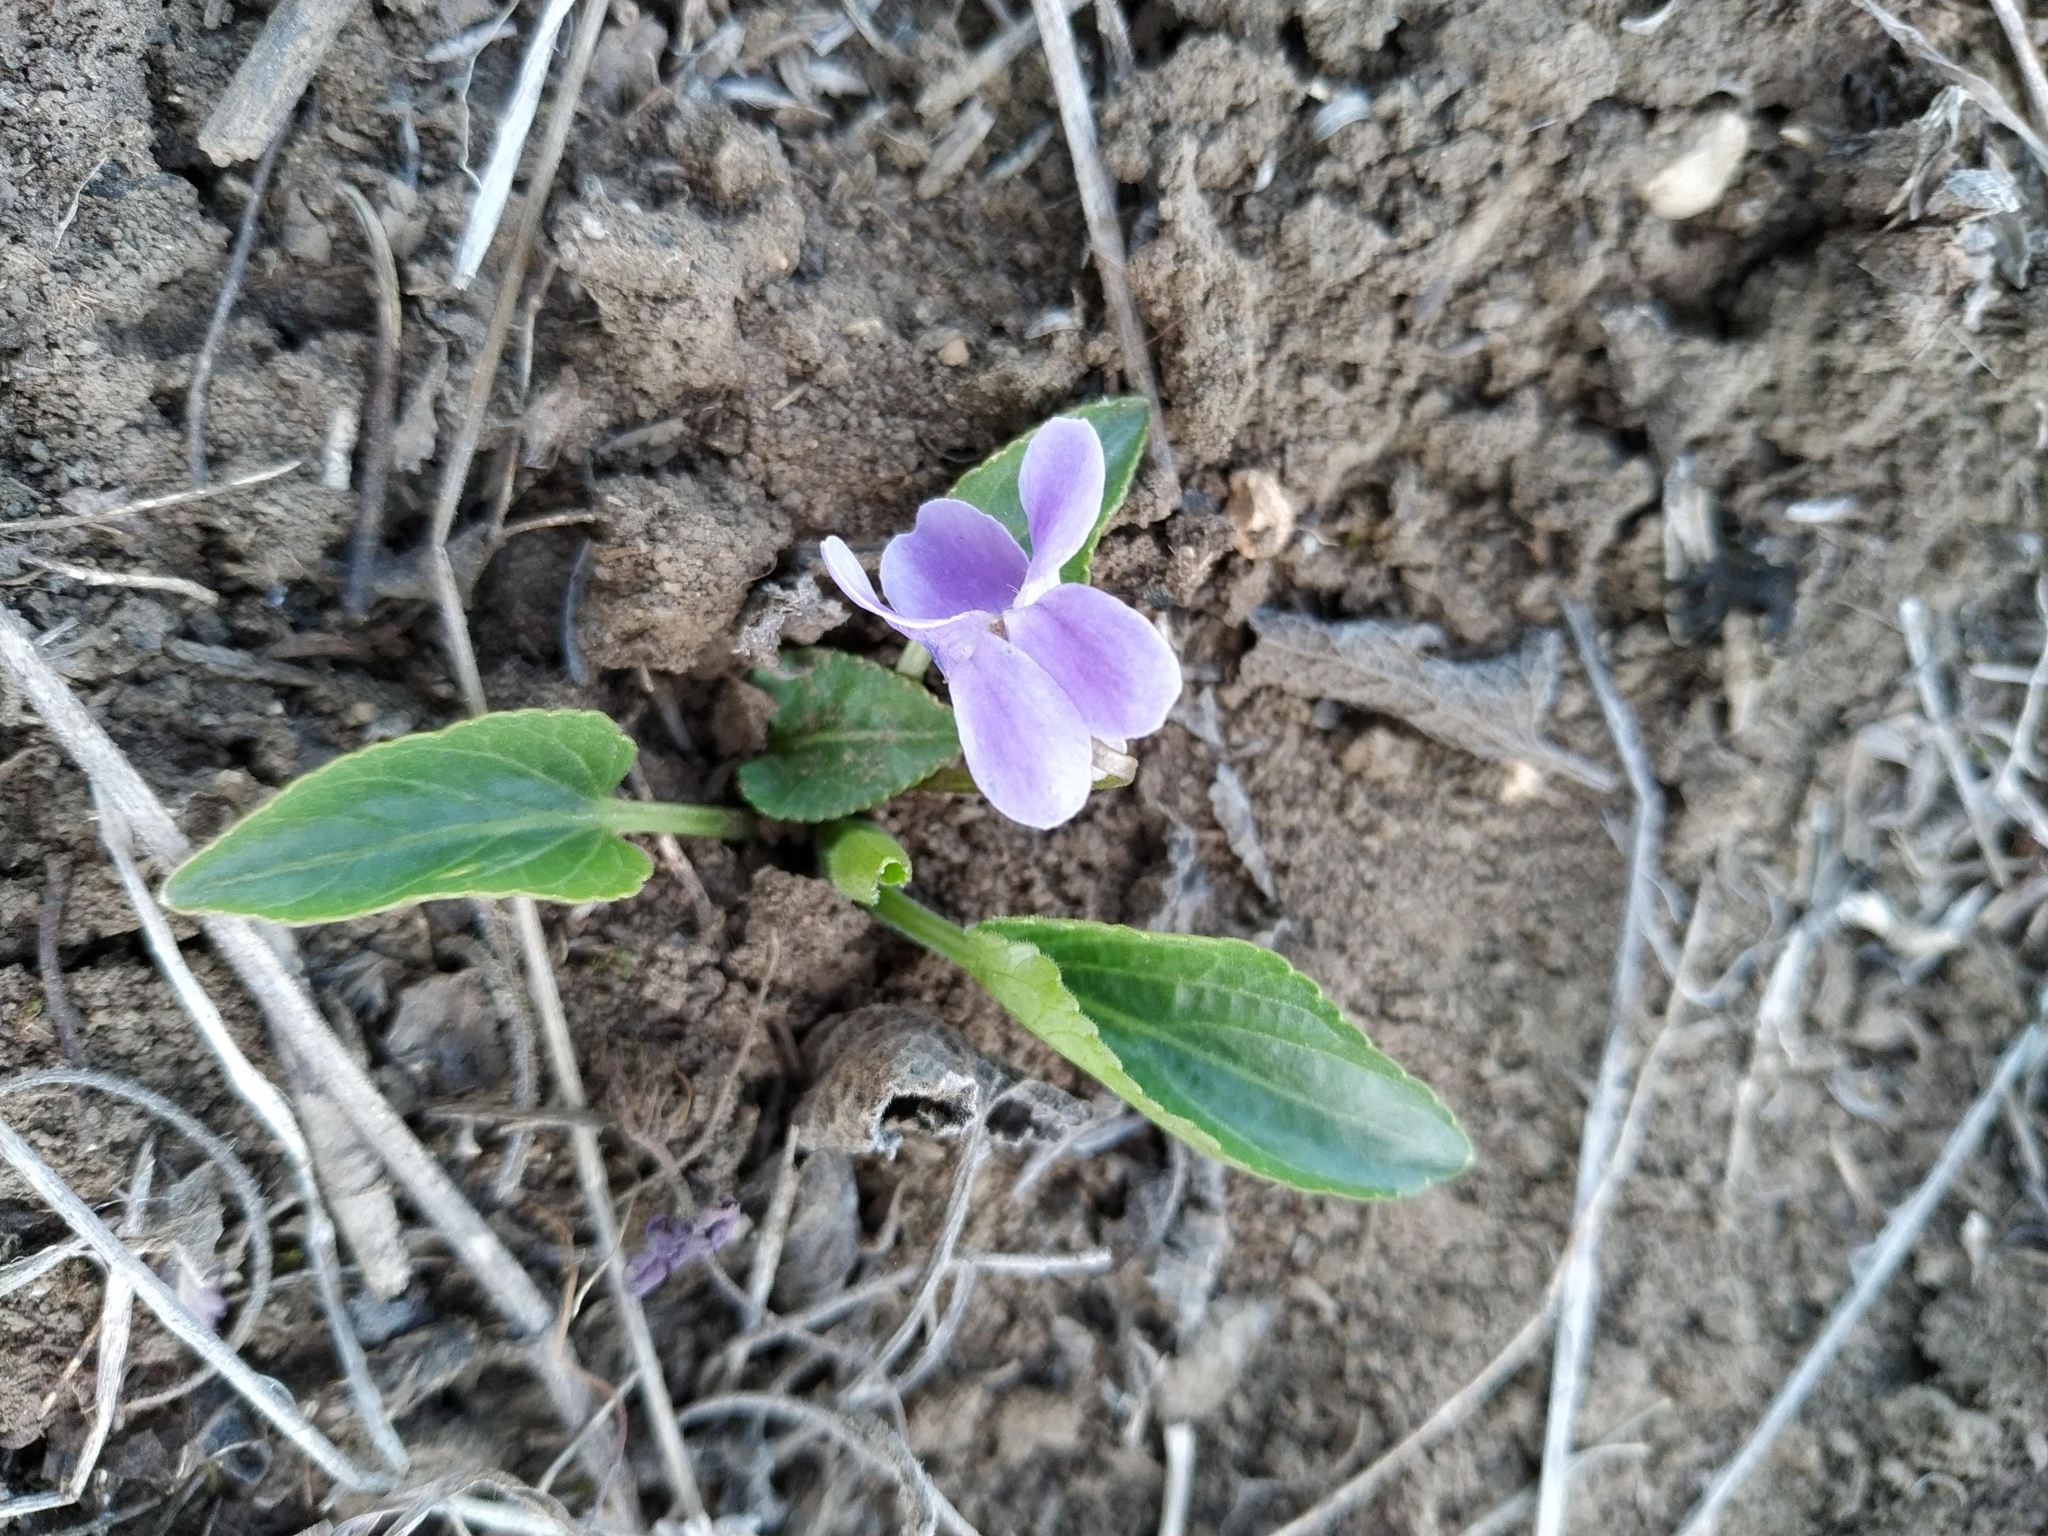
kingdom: Plantae
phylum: Tracheophyta
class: Magnoliopsida
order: Malpighiales
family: Violaceae
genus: Viola
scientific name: Viola ambigua
